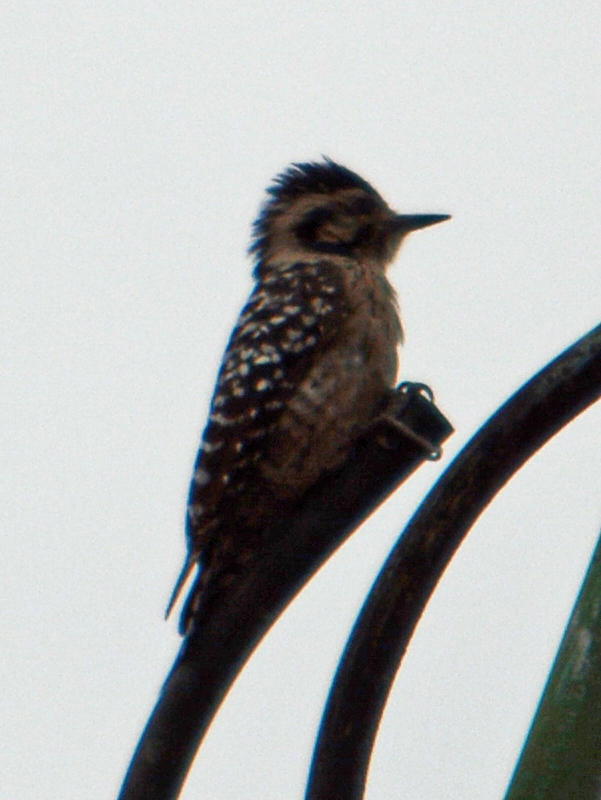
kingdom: Animalia
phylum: Chordata
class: Aves
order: Piciformes
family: Picidae
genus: Dryobates
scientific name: Dryobates scalaris
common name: Ladder-backed woodpecker
